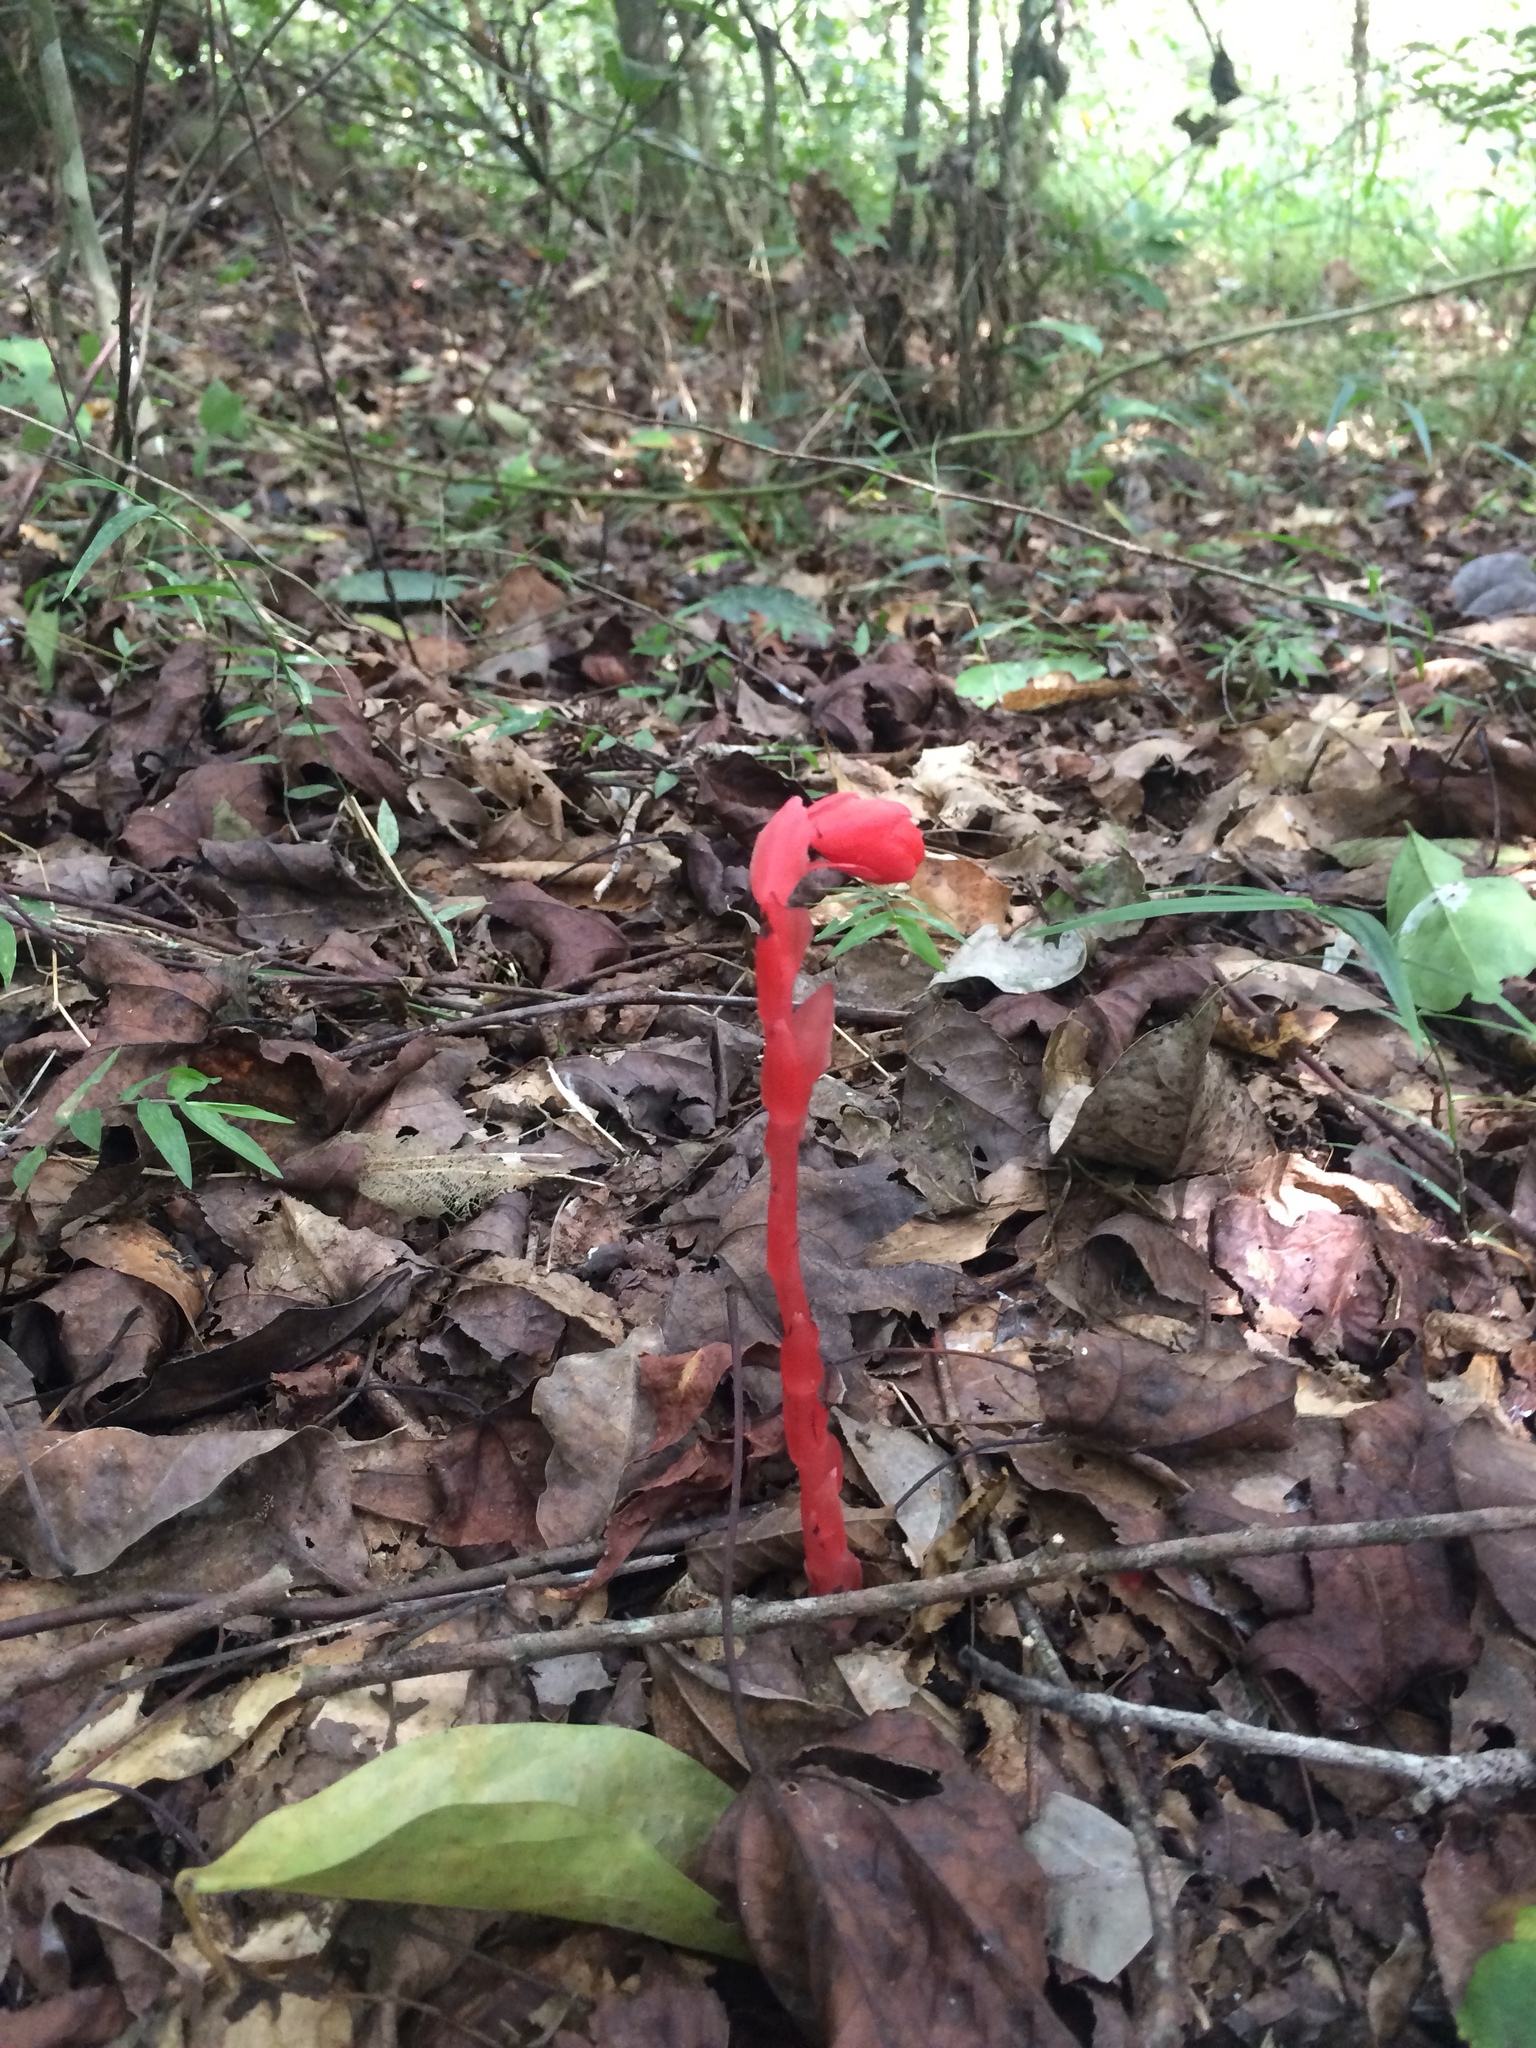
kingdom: Plantae
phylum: Tracheophyta
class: Magnoliopsida
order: Ericales
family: Ericaceae
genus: Monotropa
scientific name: Monotropa coccinea
